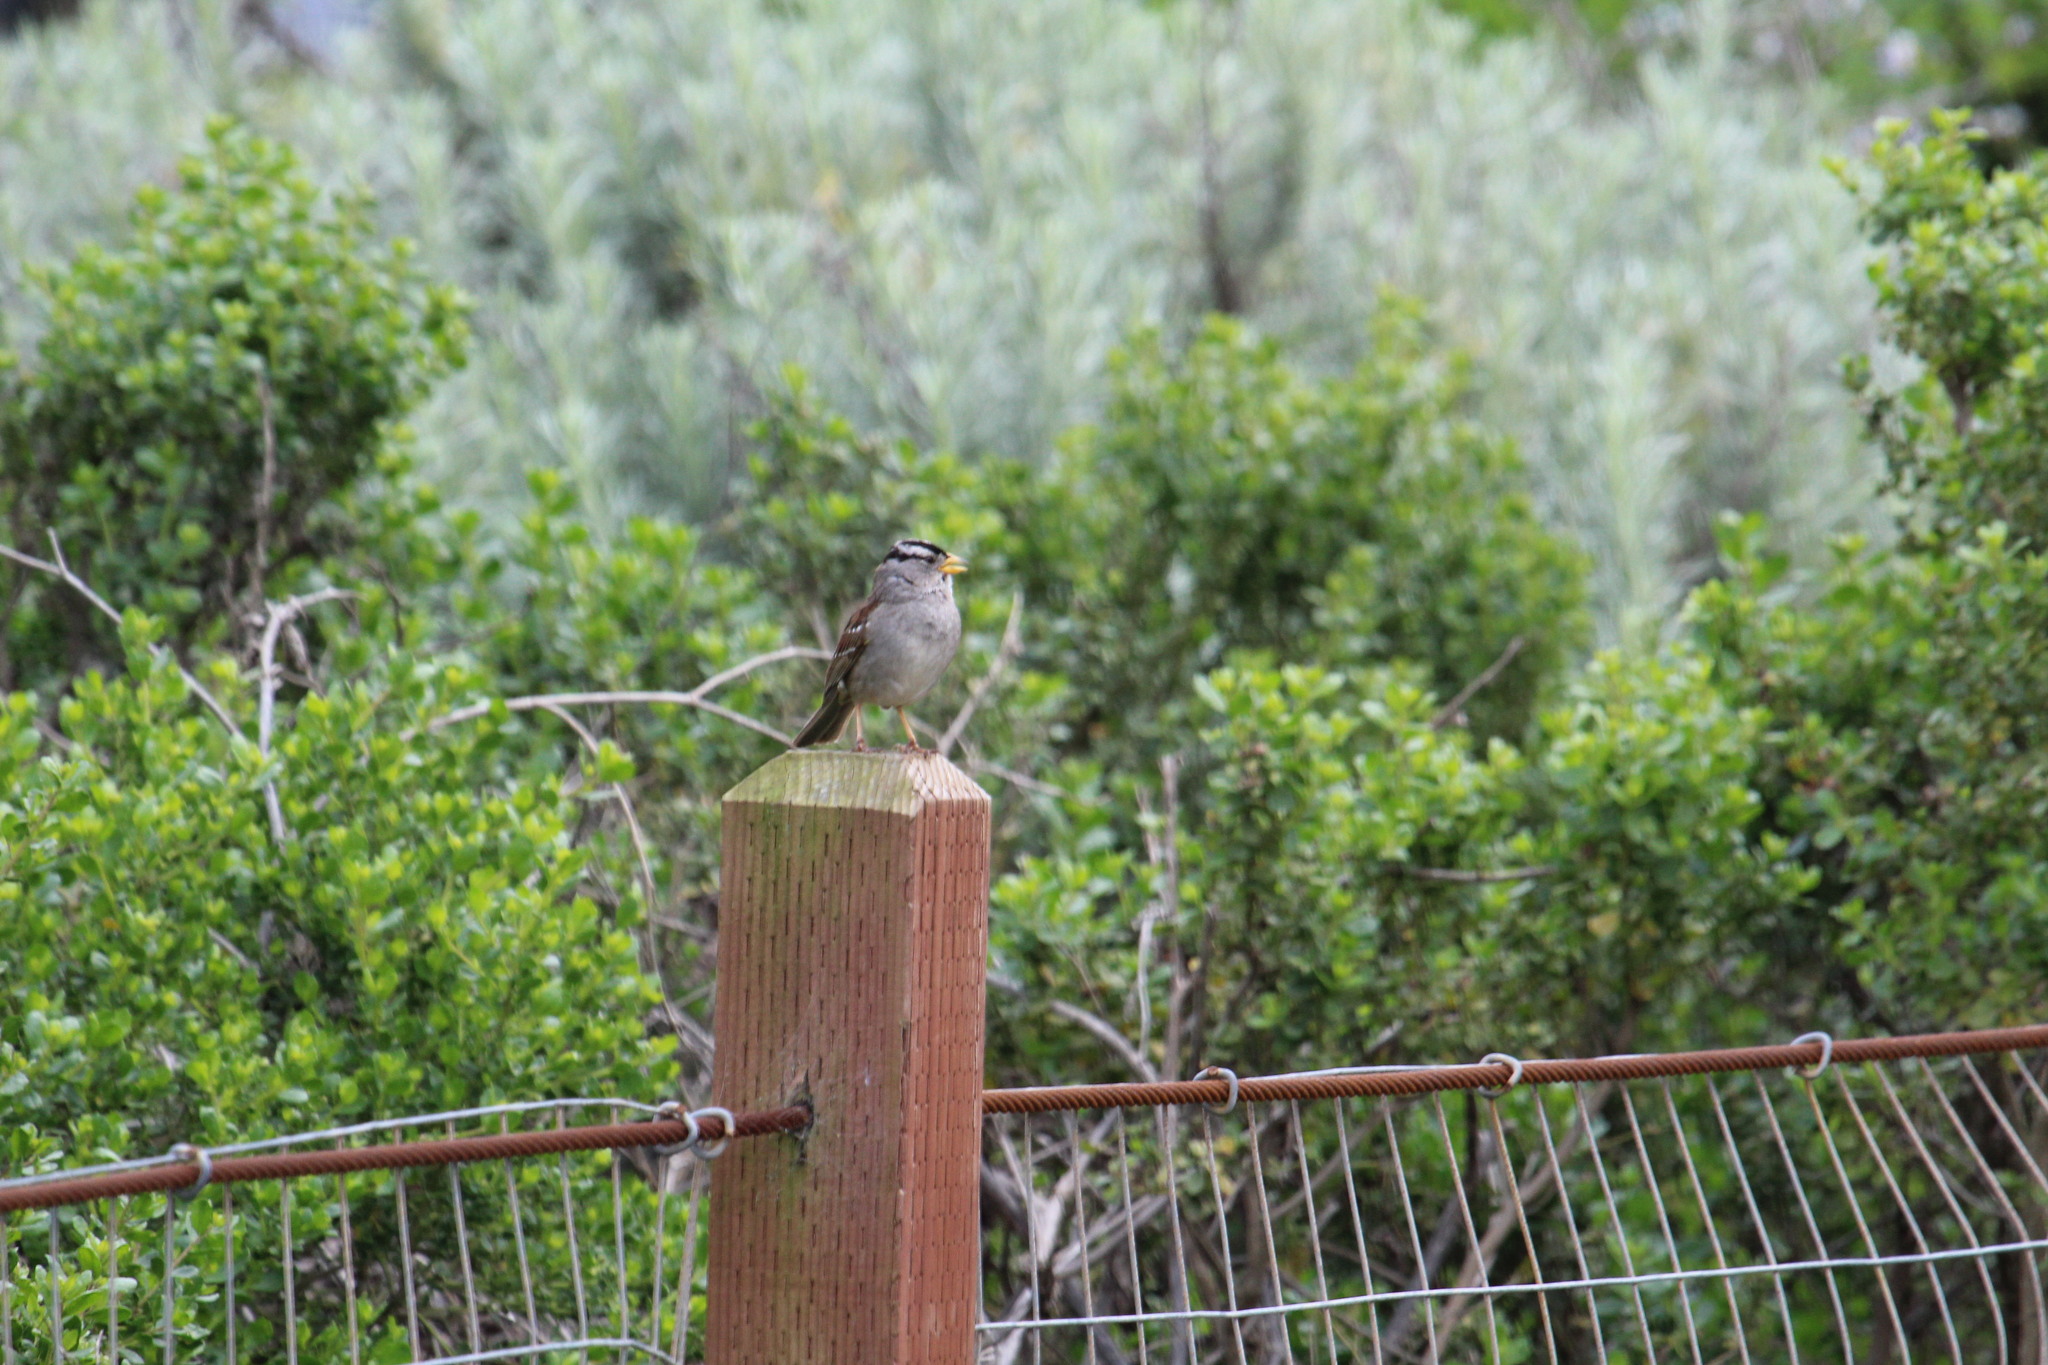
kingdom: Animalia
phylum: Chordata
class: Aves
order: Passeriformes
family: Passerellidae
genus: Zonotrichia
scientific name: Zonotrichia leucophrys
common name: White-crowned sparrow
